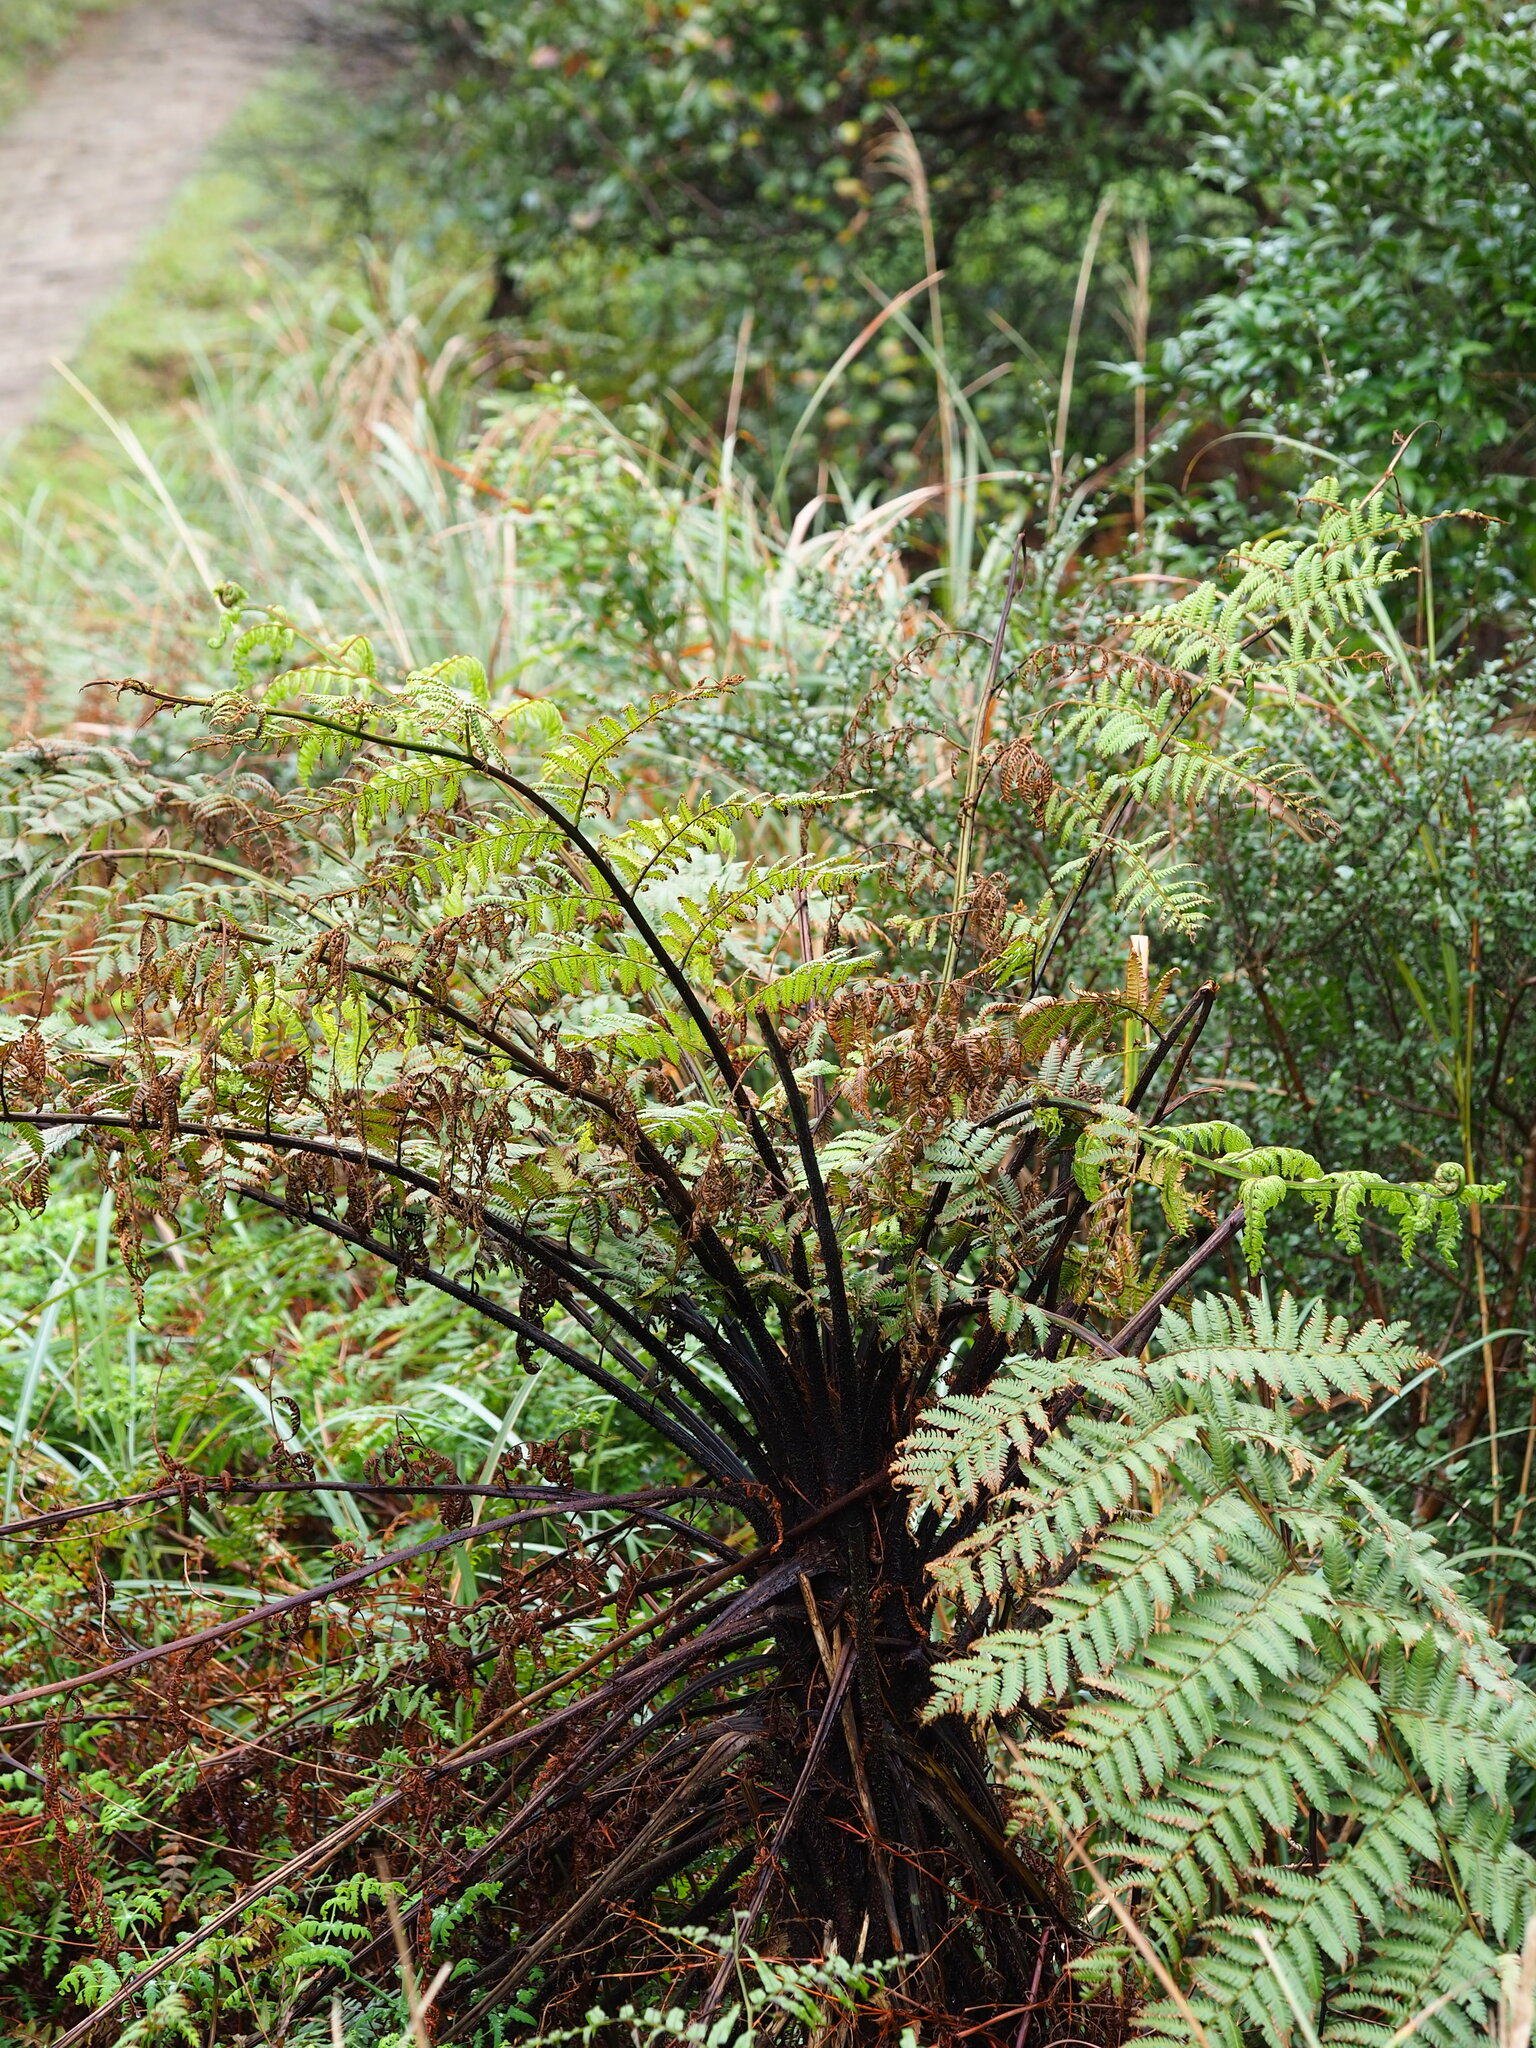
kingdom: Plantae
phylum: Tracheophyta
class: Polypodiopsida
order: Cyatheales
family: Cyatheaceae
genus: Alsophila
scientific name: Alsophila spinulosa
